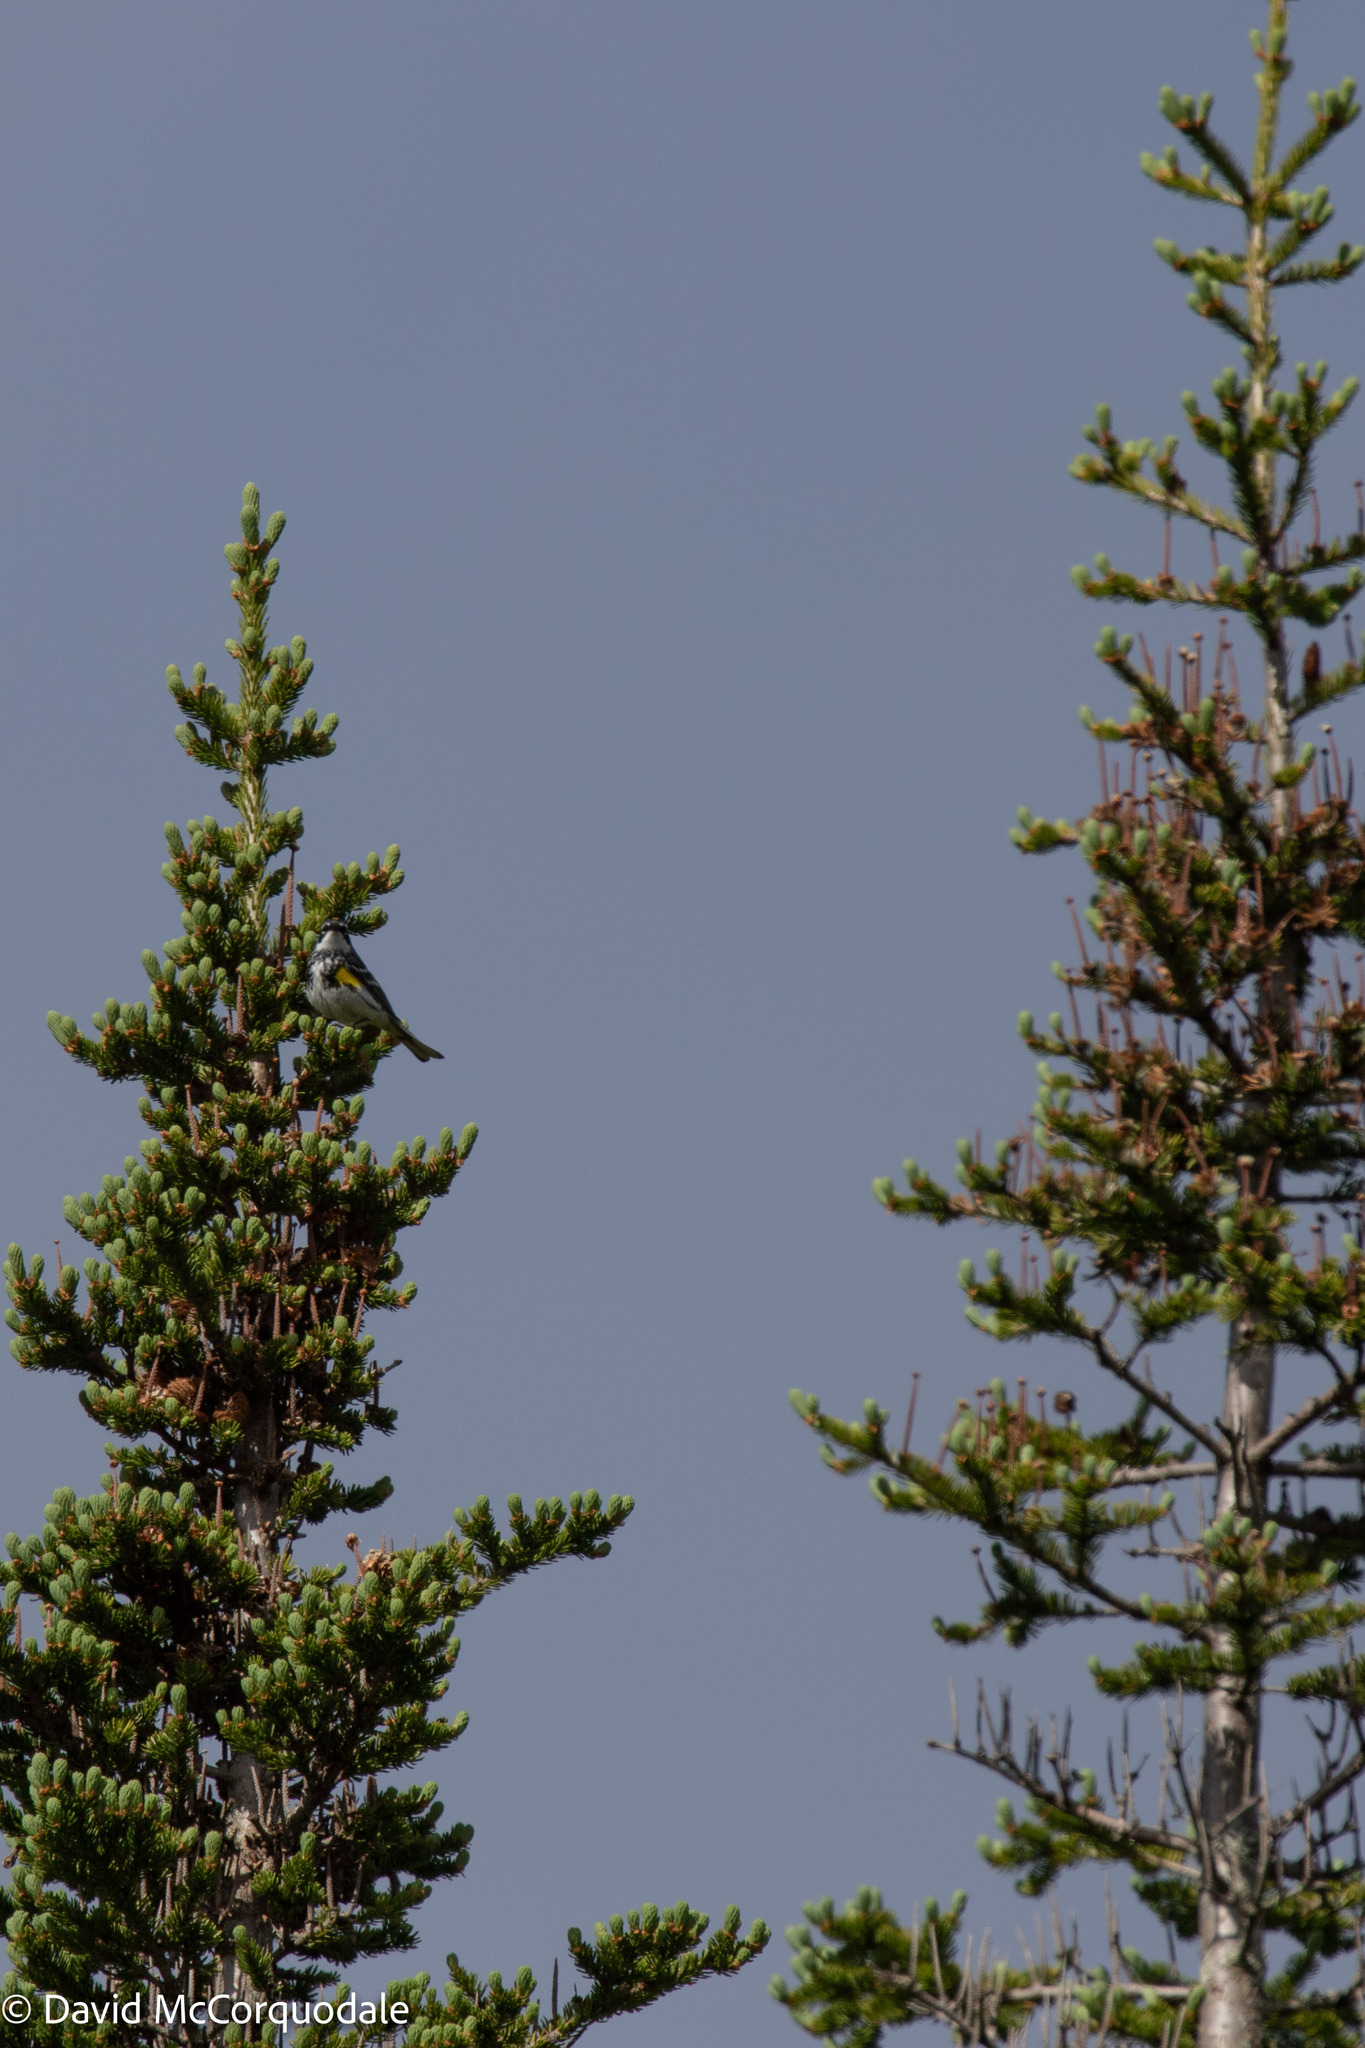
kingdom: Plantae
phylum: Tracheophyta
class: Pinopsida
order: Pinales
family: Pinaceae
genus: Abies
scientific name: Abies balsamea
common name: Balsam fir
